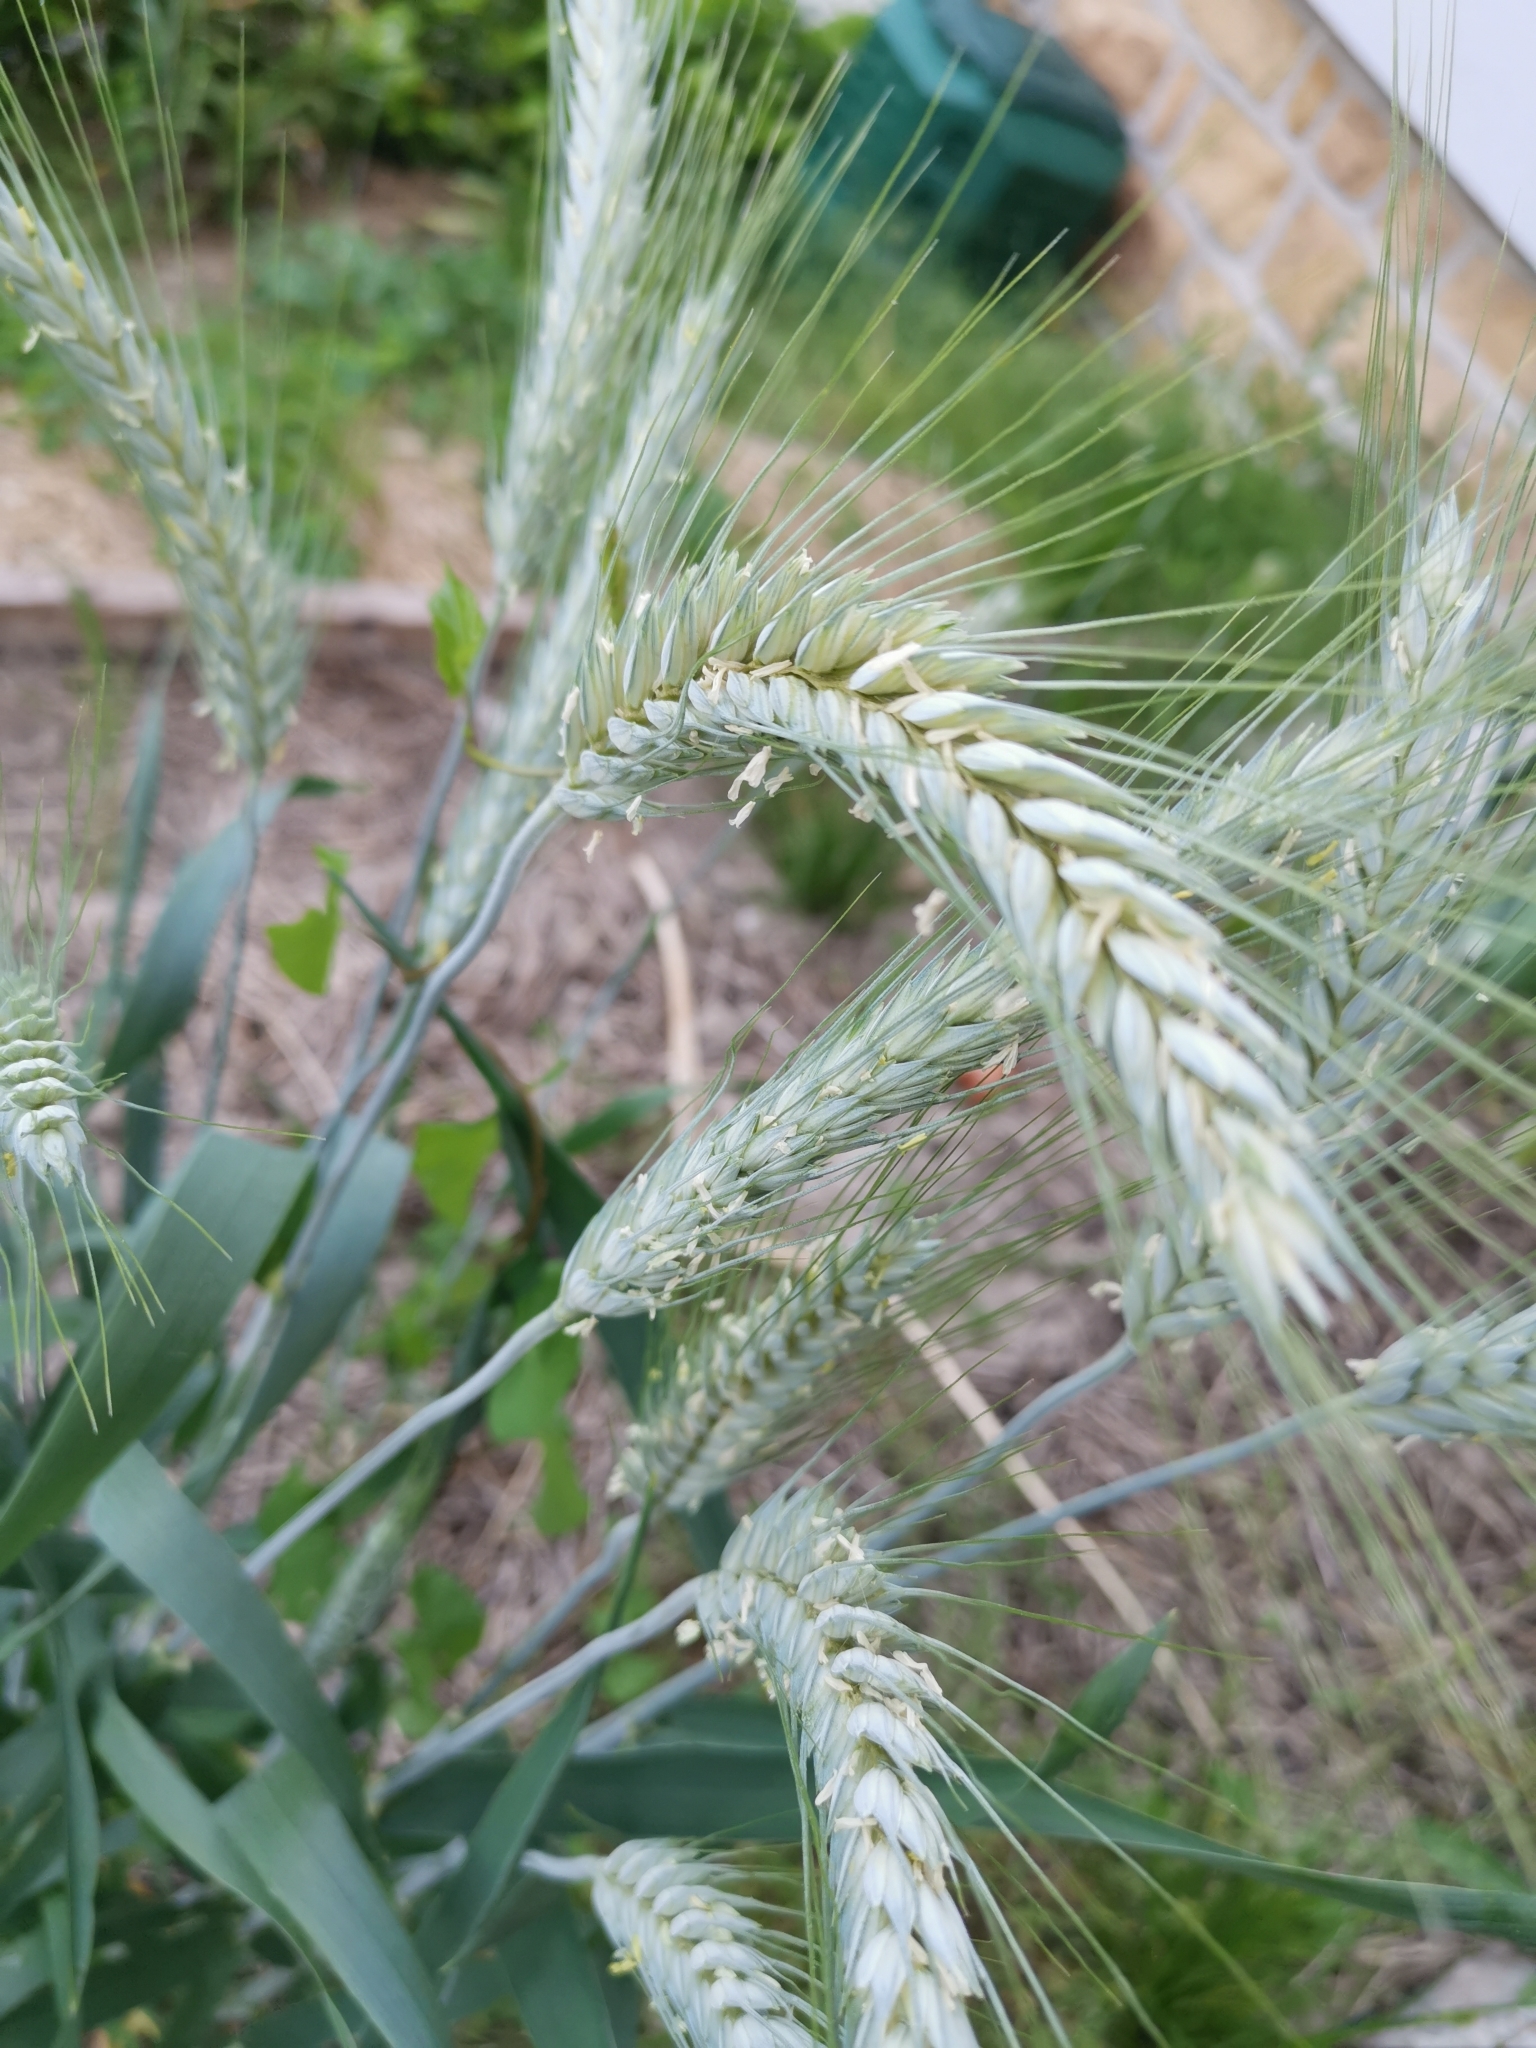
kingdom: Plantae
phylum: Tracheophyta
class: Liliopsida
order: Poales
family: Poaceae
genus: Triticum
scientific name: Triticum aestivum
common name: Common wheat
